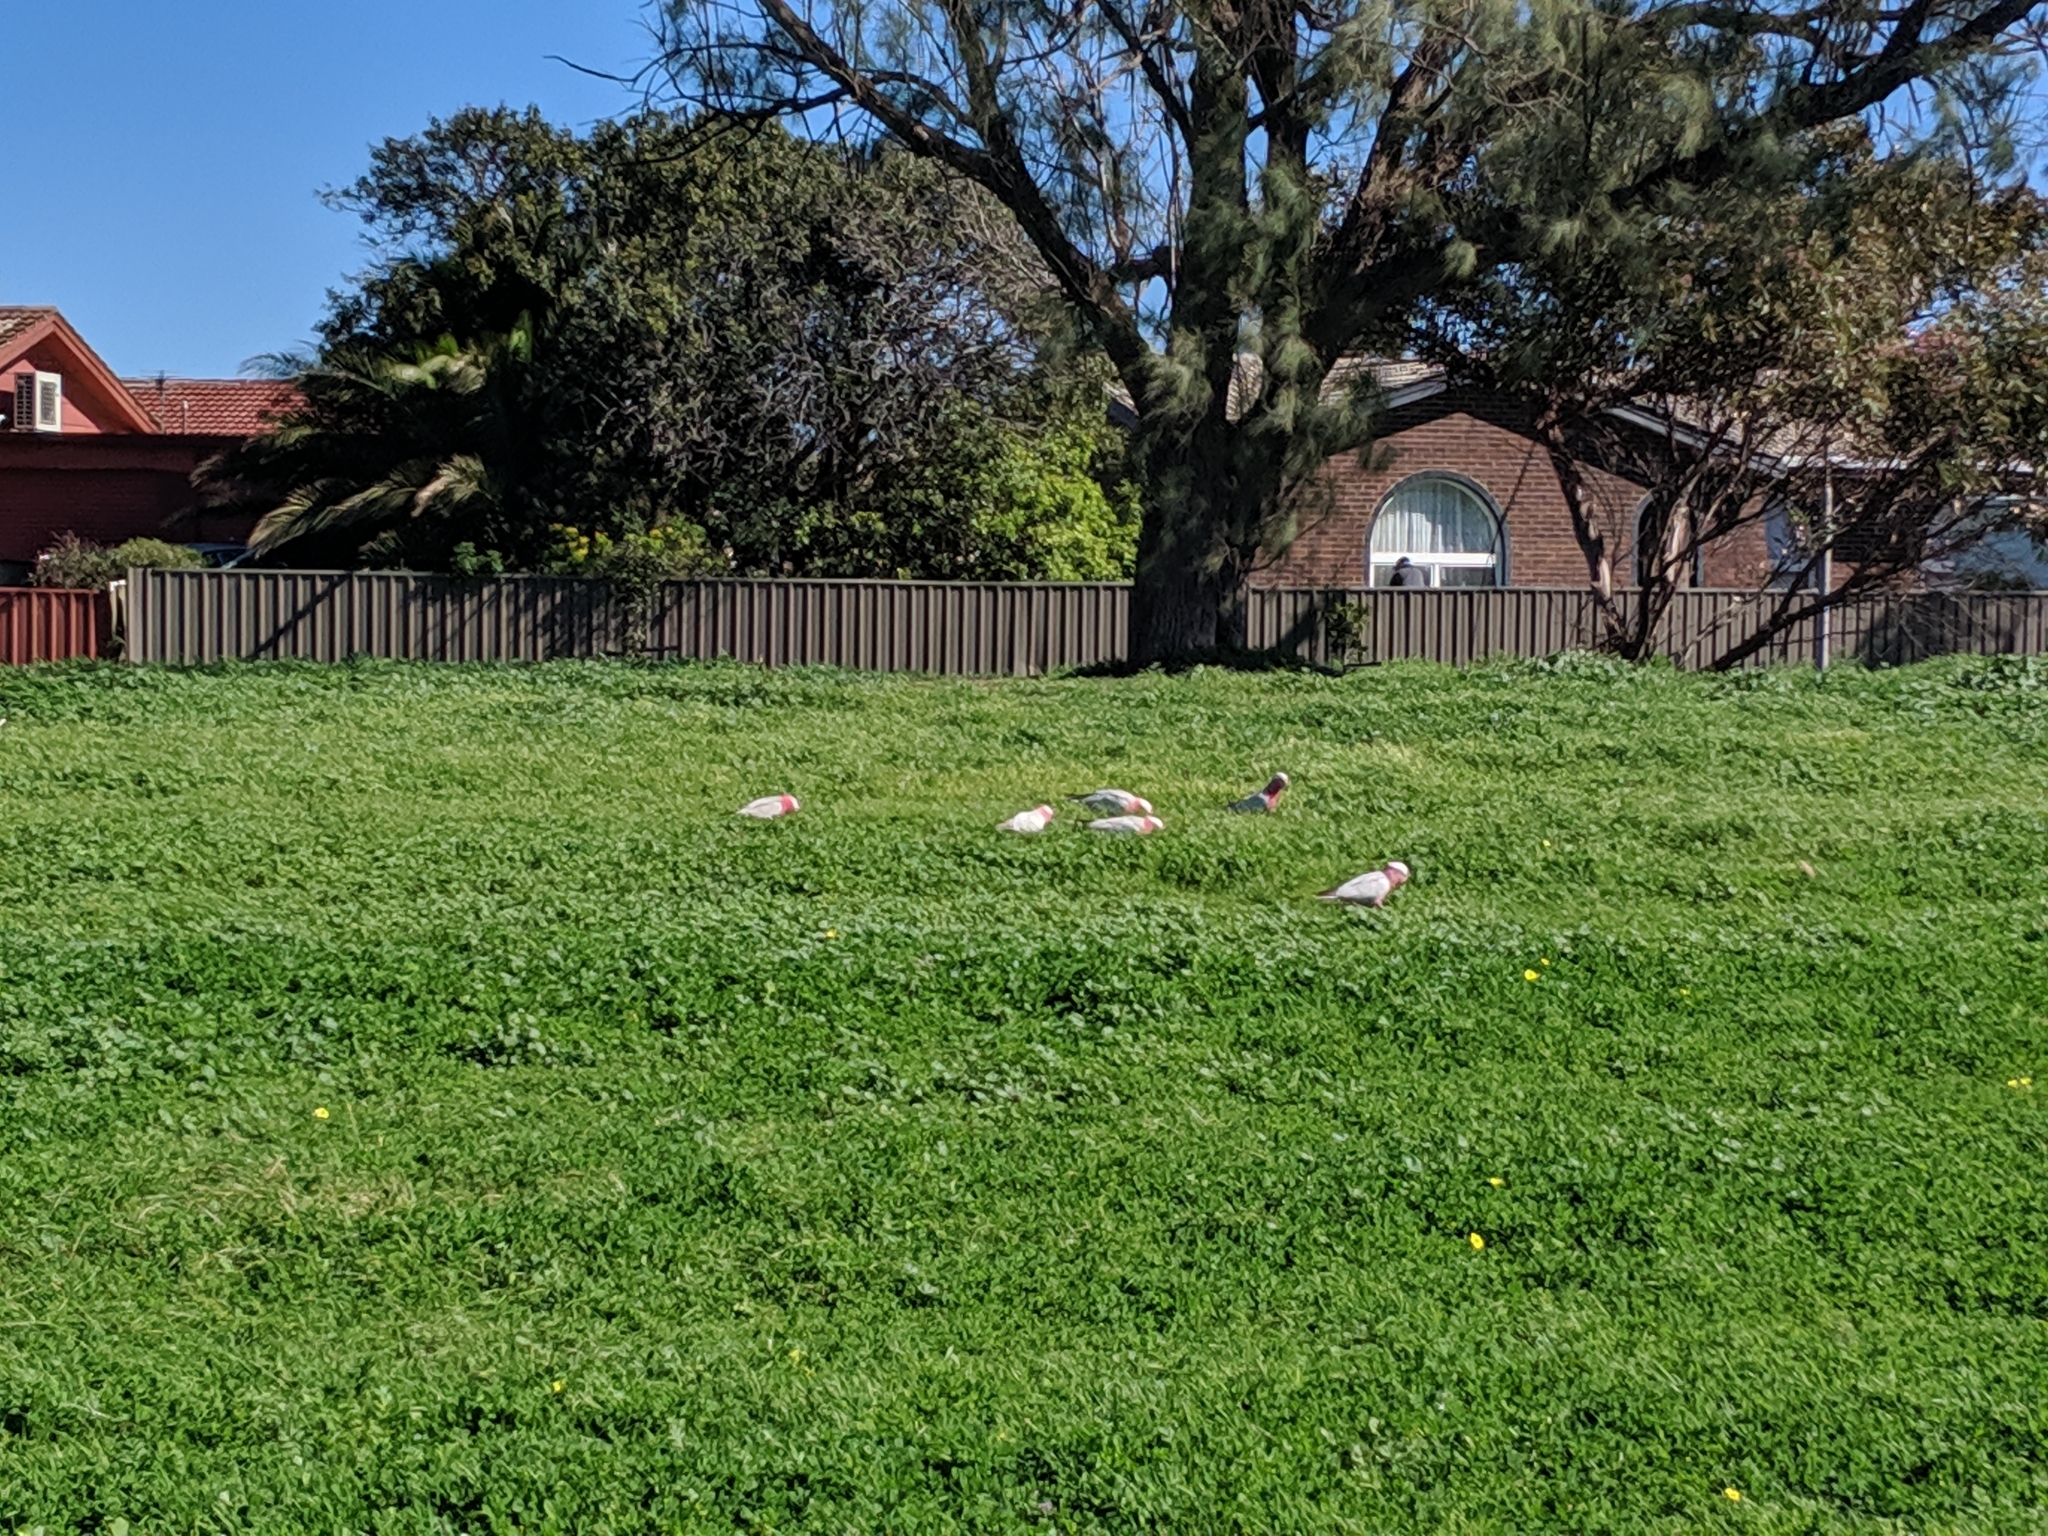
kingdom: Animalia
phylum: Chordata
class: Aves
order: Psittaciformes
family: Psittacidae
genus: Eolophus
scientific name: Eolophus roseicapilla
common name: Galah
